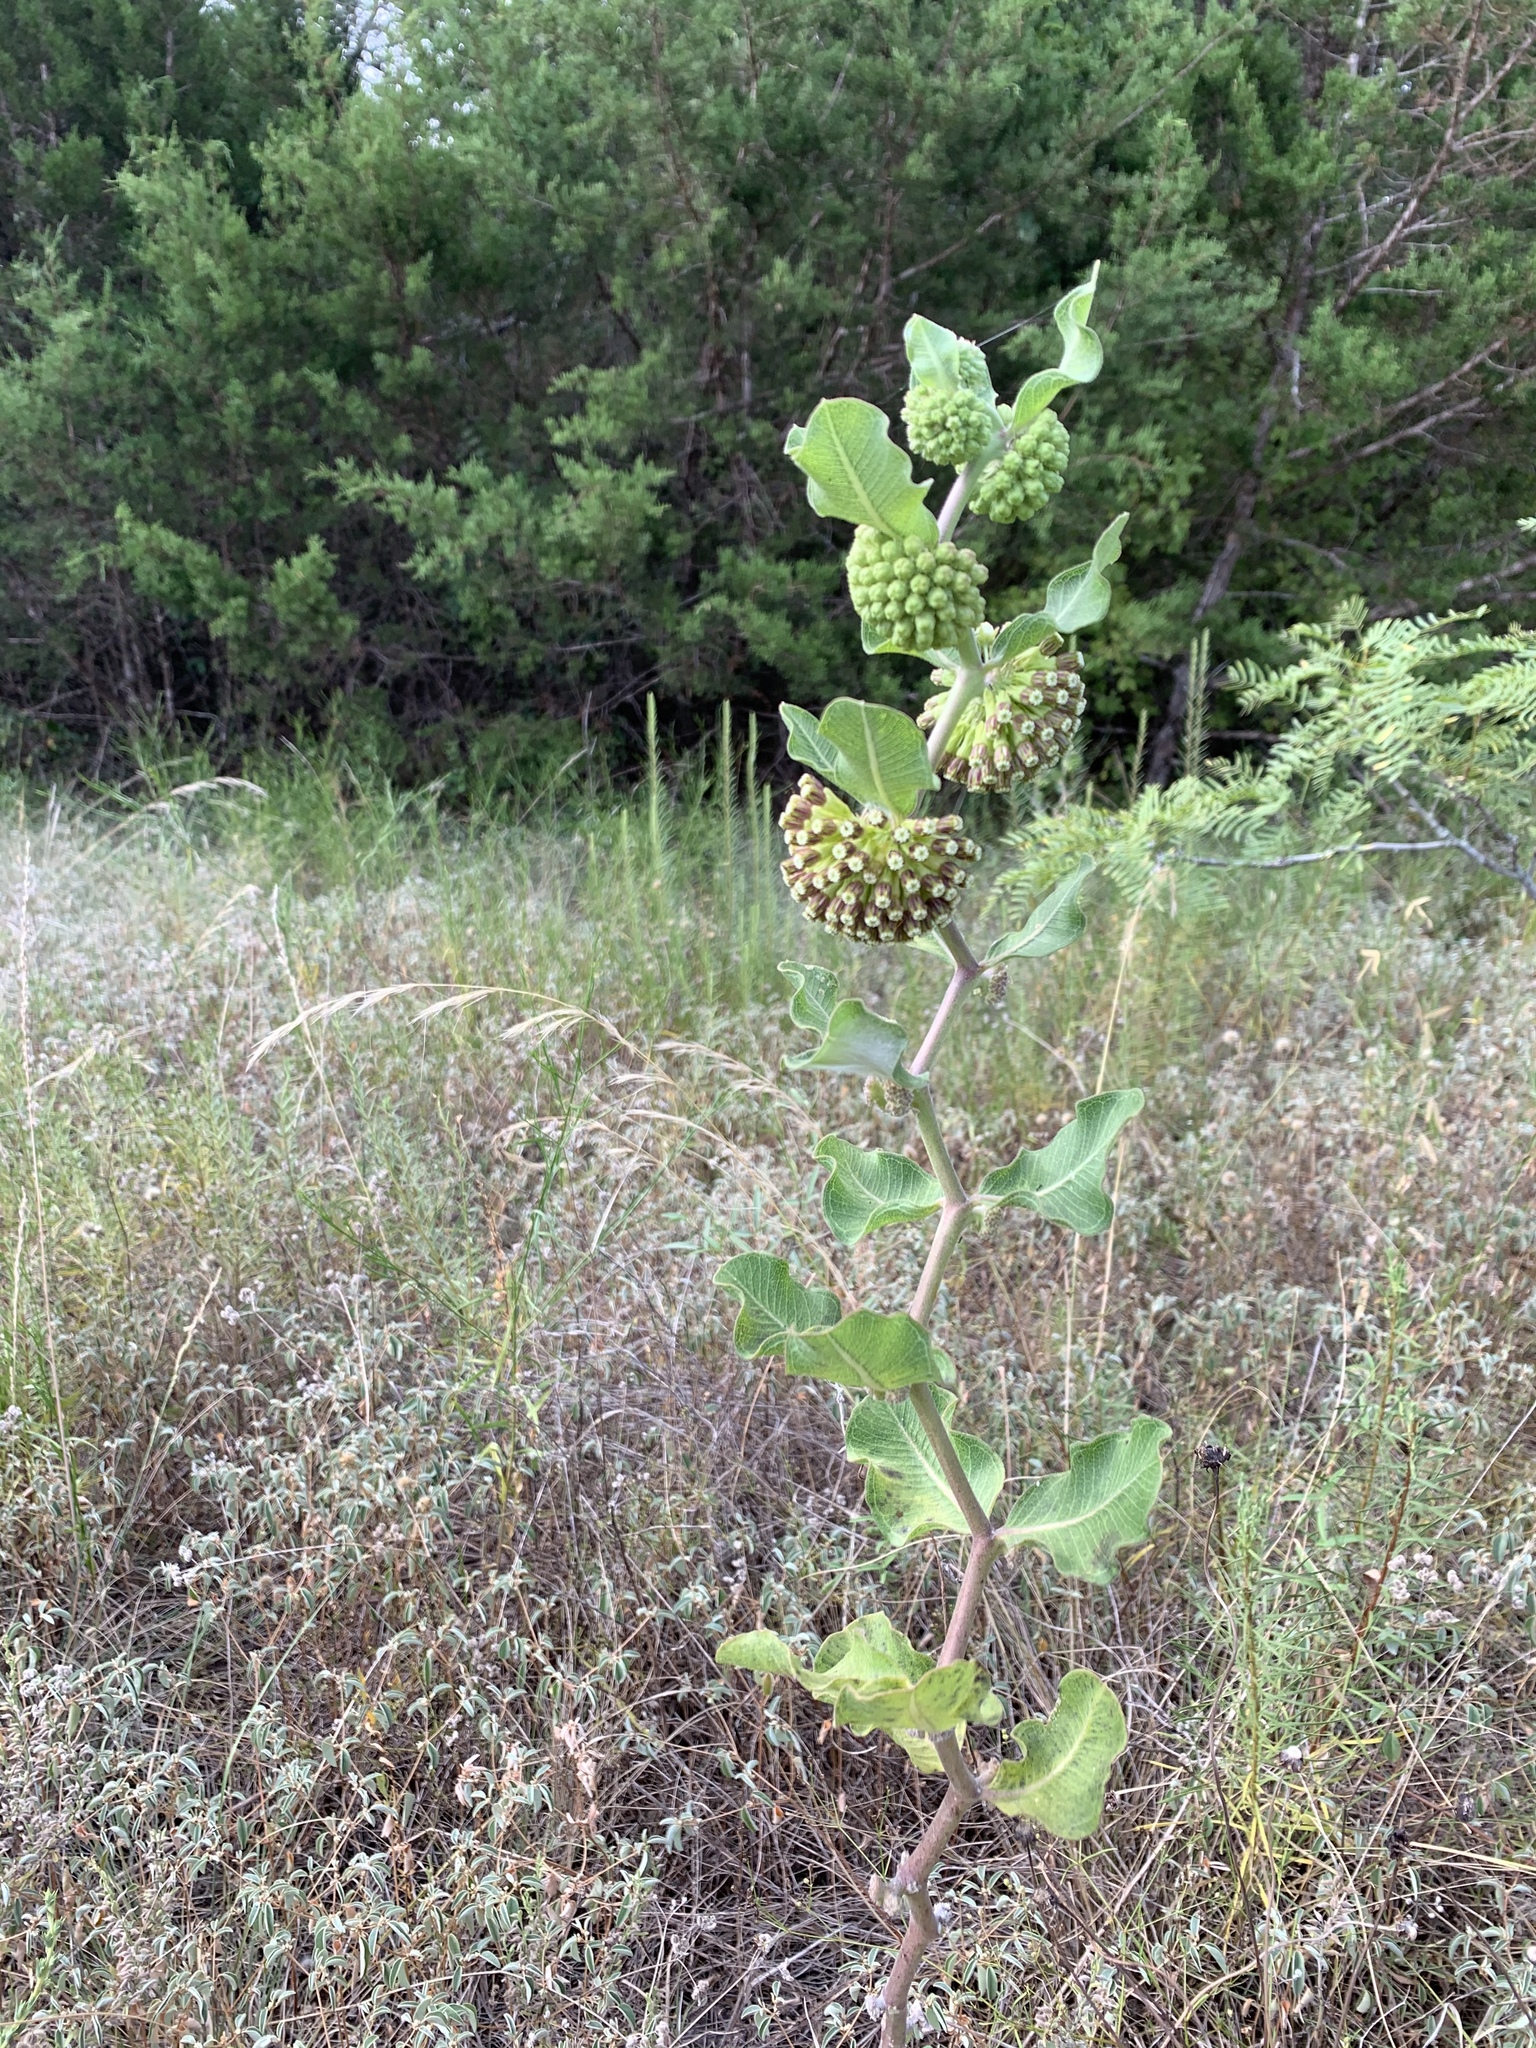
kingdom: Plantae
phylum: Tracheophyta
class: Magnoliopsida
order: Gentianales
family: Apocynaceae
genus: Asclepias
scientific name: Asclepias viridiflora
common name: Green comet milkweed
